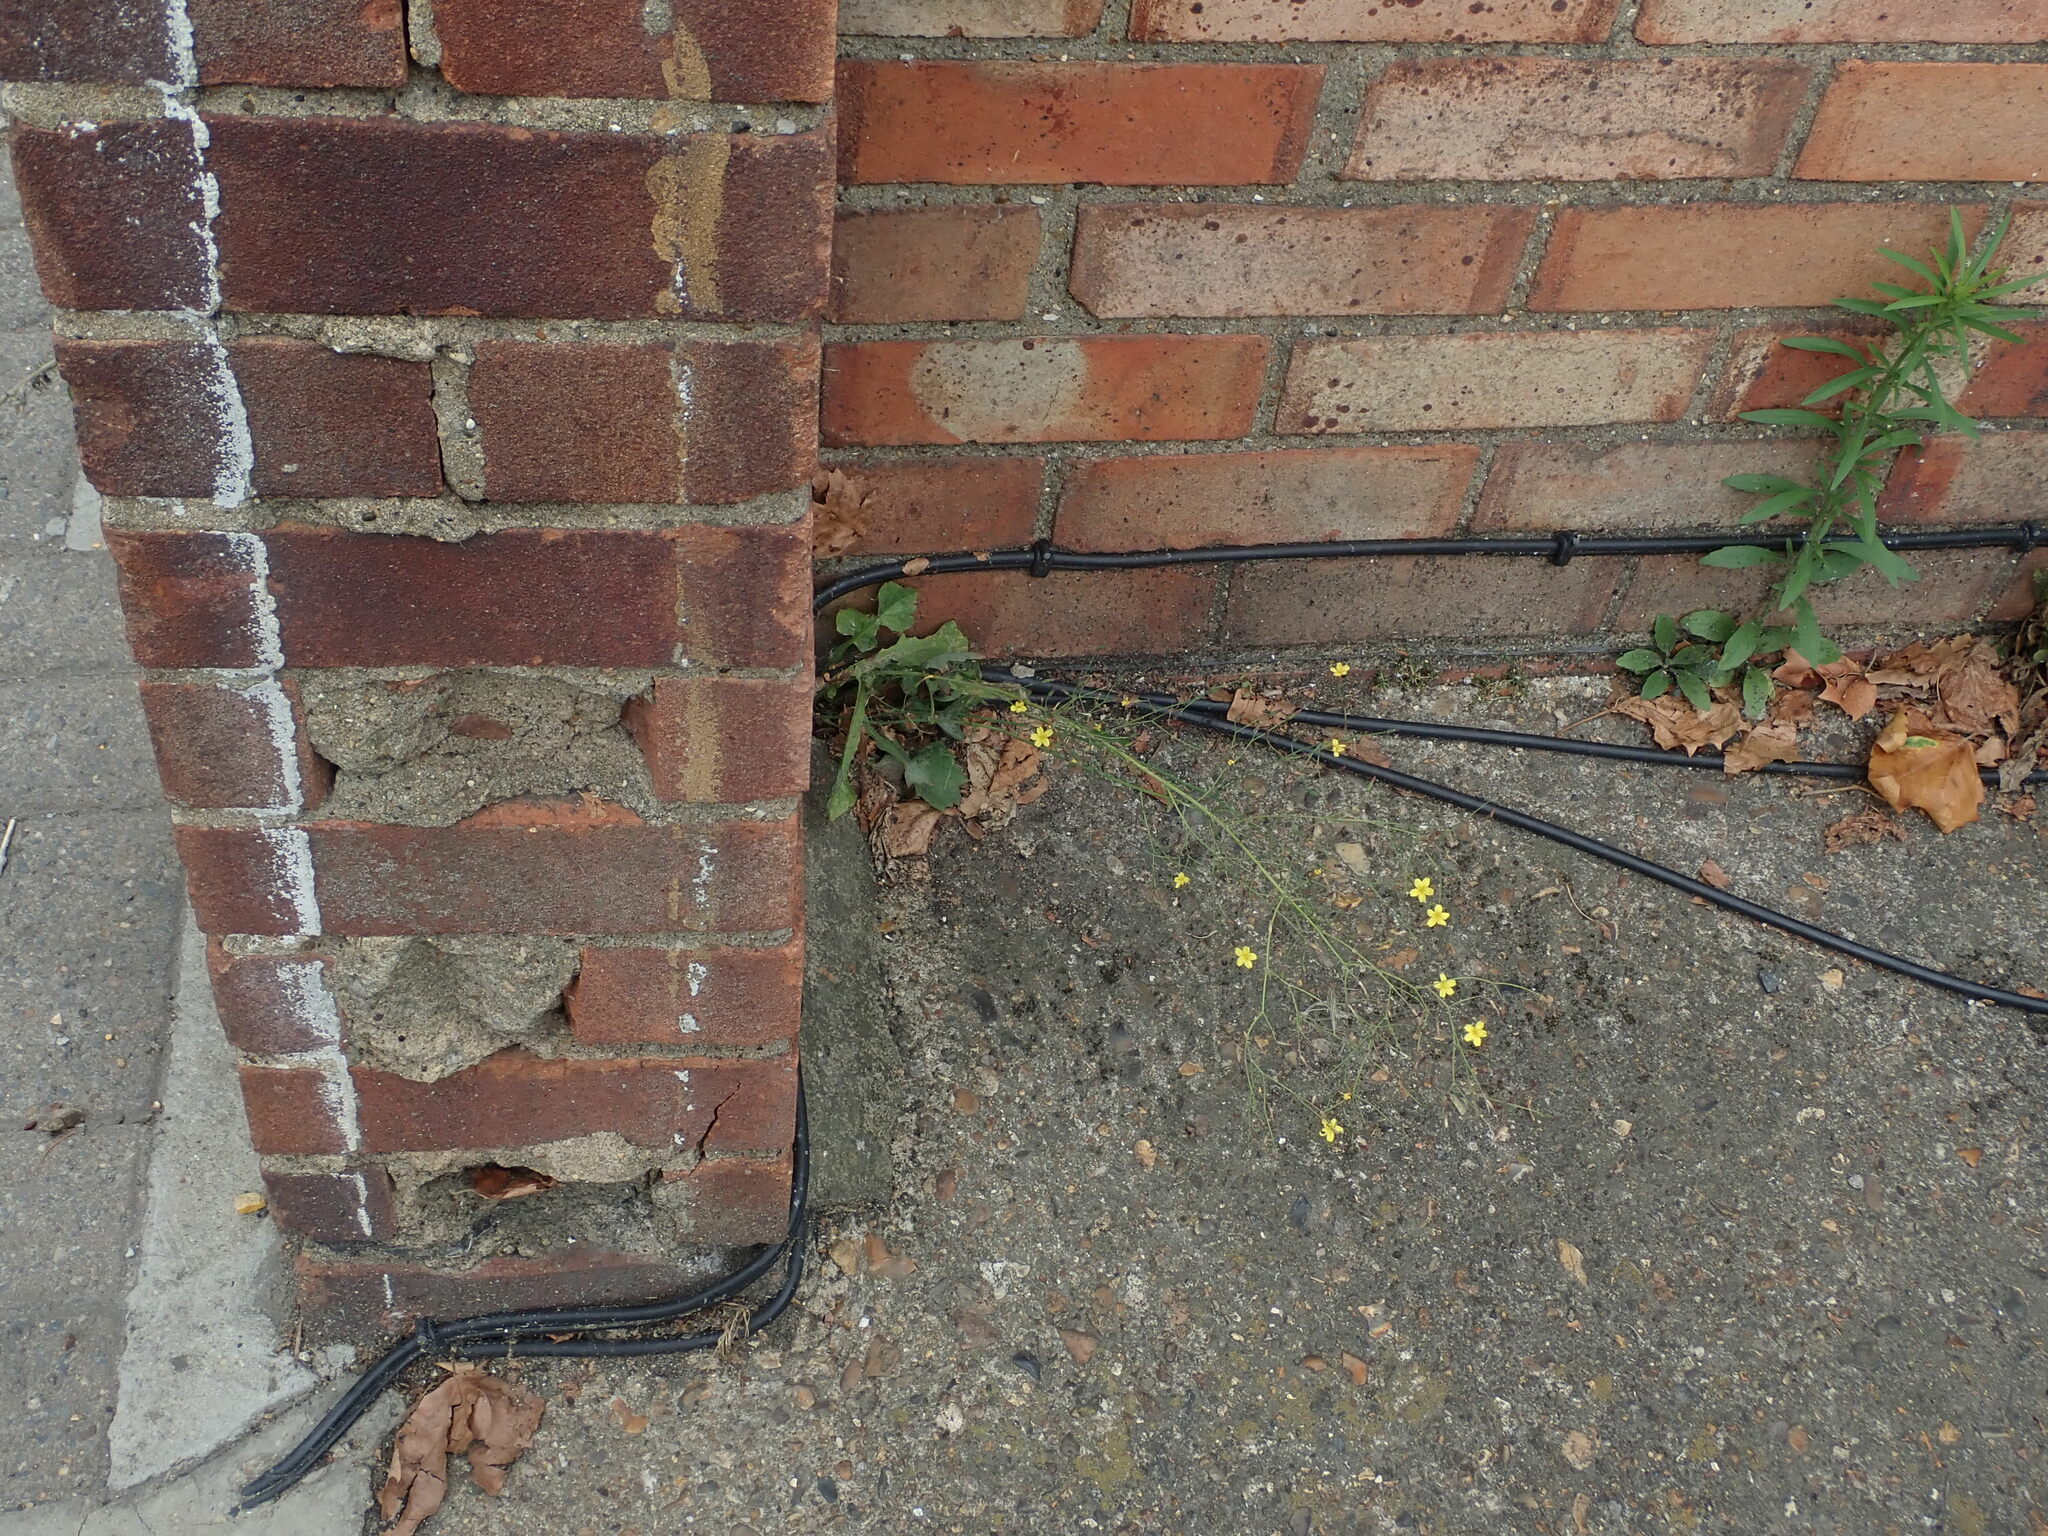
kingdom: Plantae
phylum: Tracheophyta
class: Magnoliopsida
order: Asterales
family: Asteraceae
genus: Mycelis
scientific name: Mycelis muralis
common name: Wall lettuce
